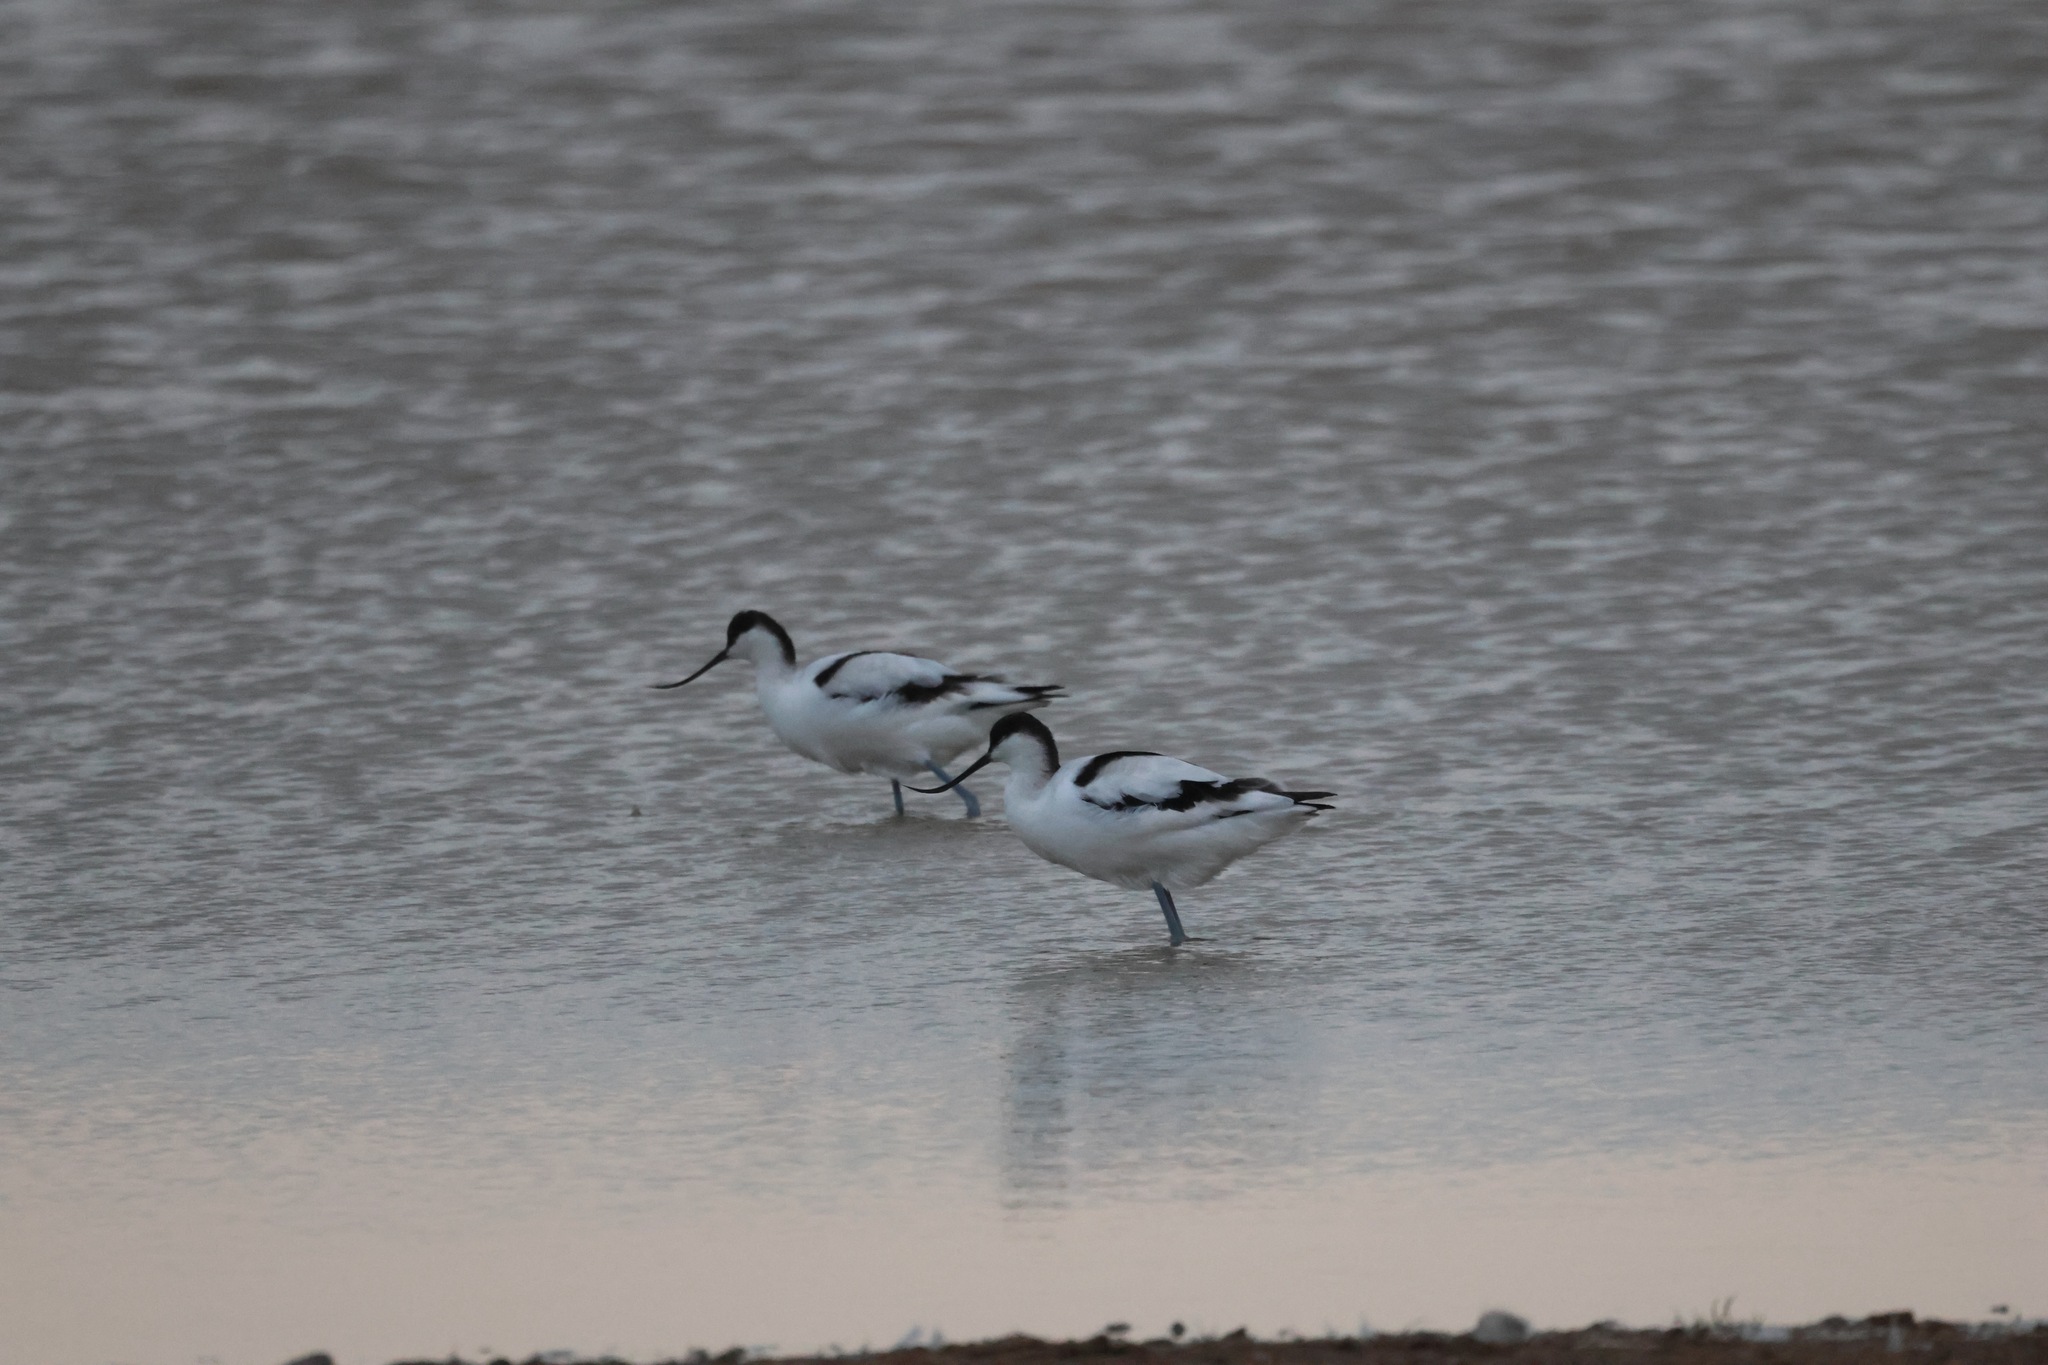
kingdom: Animalia
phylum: Chordata
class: Aves
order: Charadriiformes
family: Recurvirostridae
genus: Recurvirostra
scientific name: Recurvirostra avosetta
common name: Pied avocet
